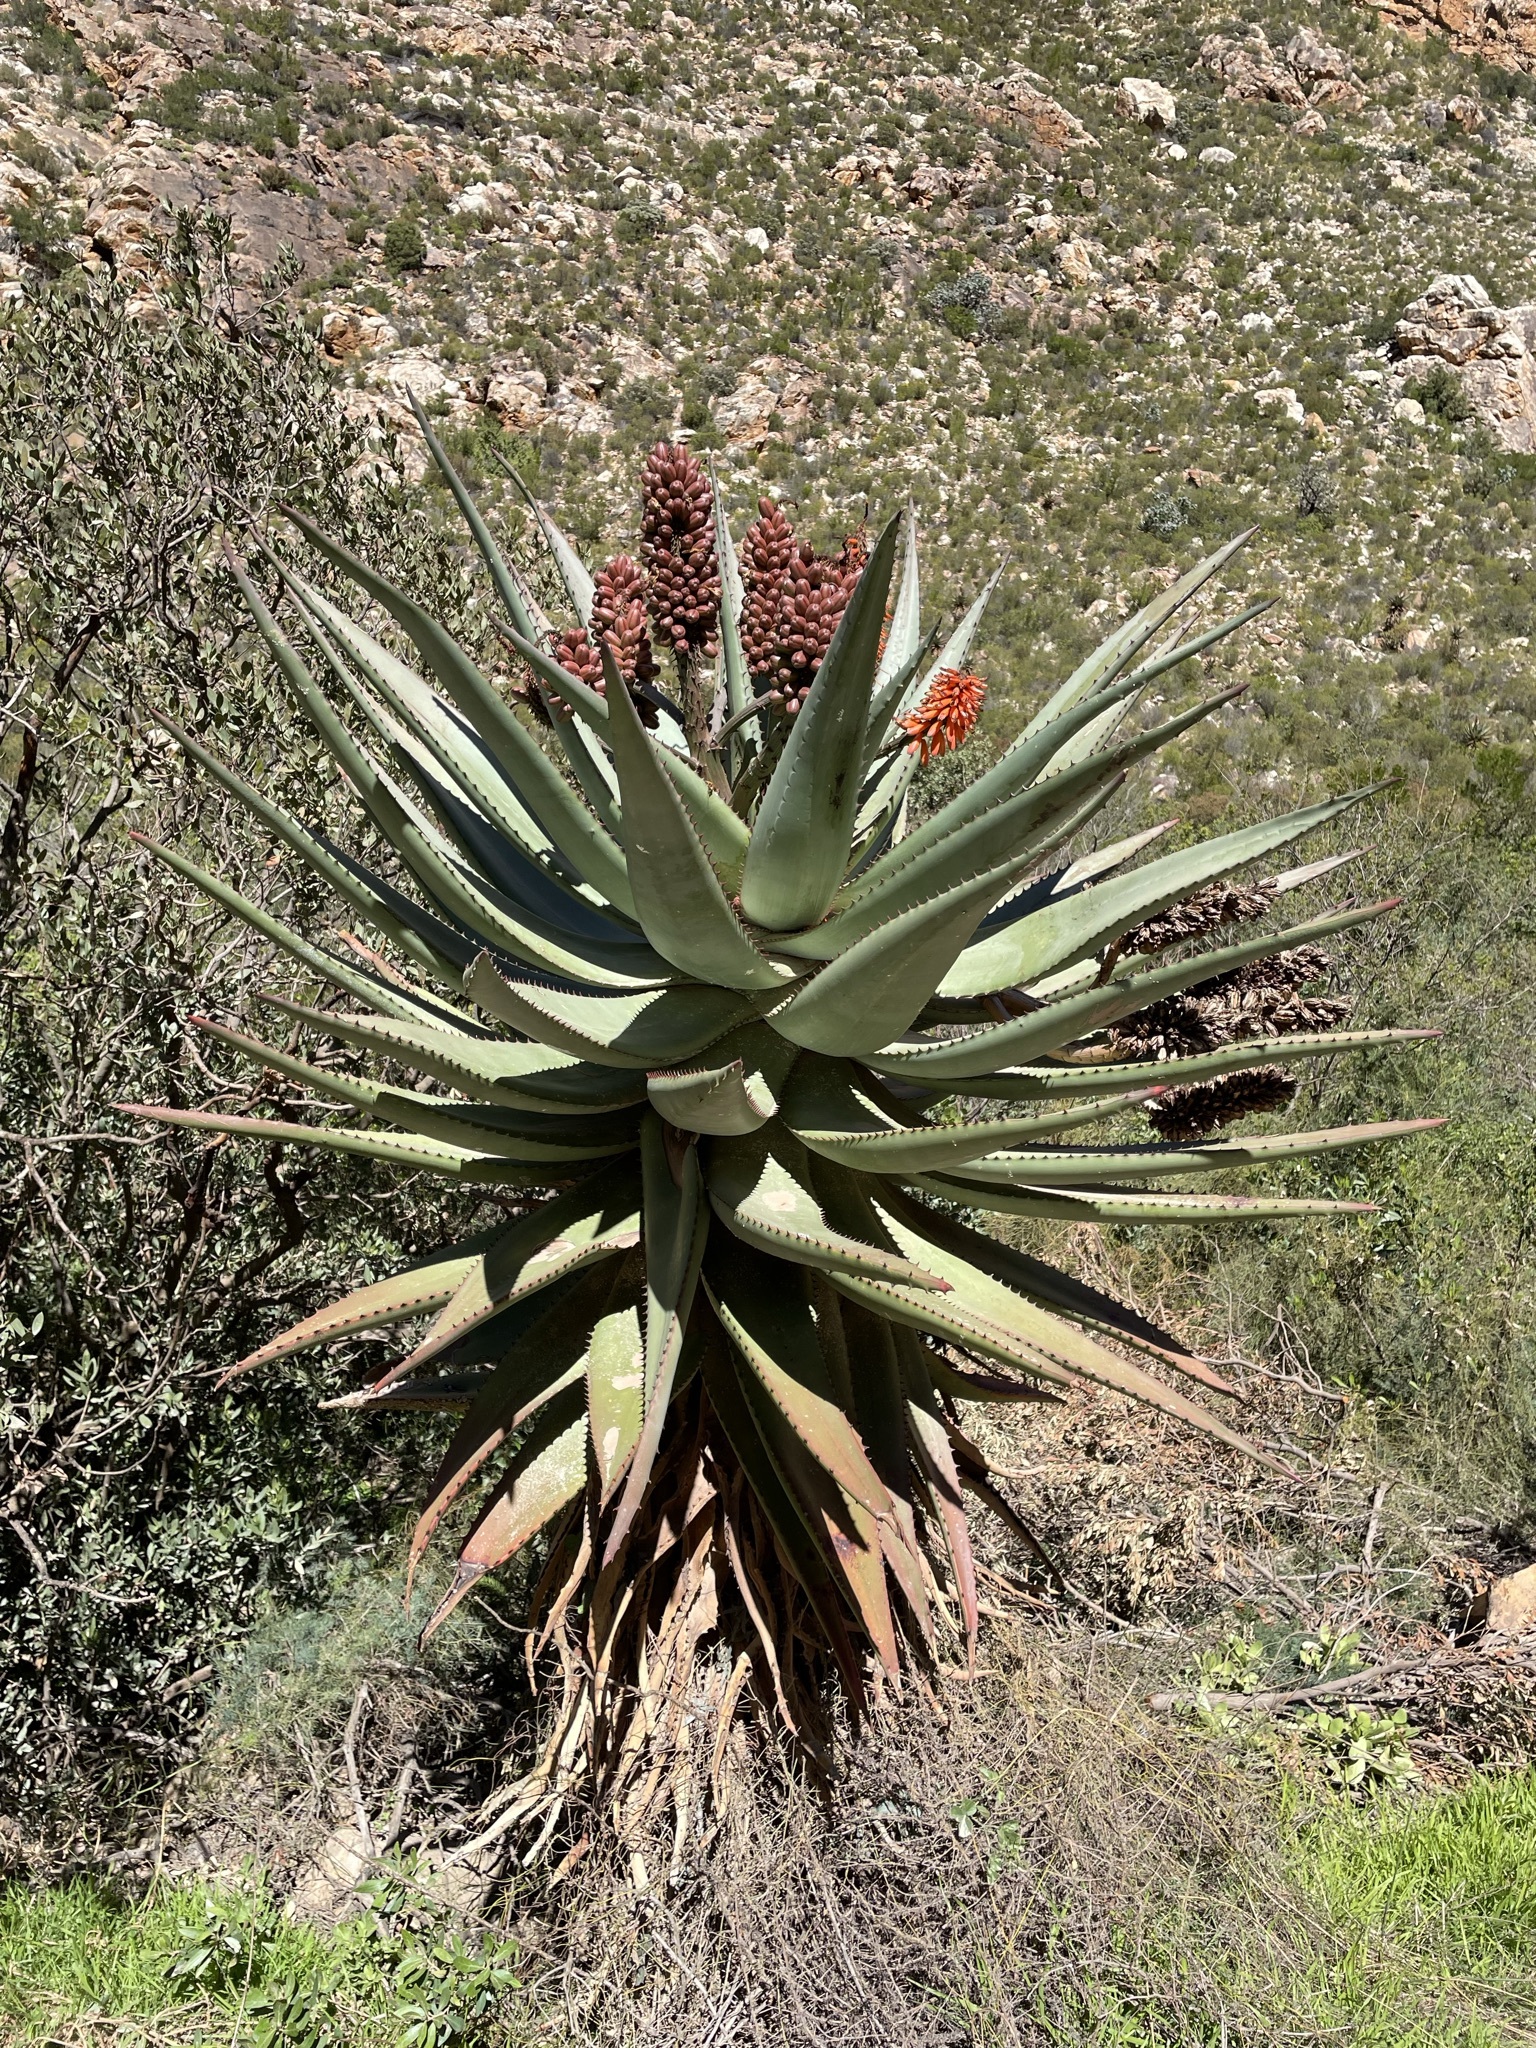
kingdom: Plantae
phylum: Tracheophyta
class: Liliopsida
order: Asparagales
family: Asphodelaceae
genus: Aloe
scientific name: Aloe ferox
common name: Bitter aloe
